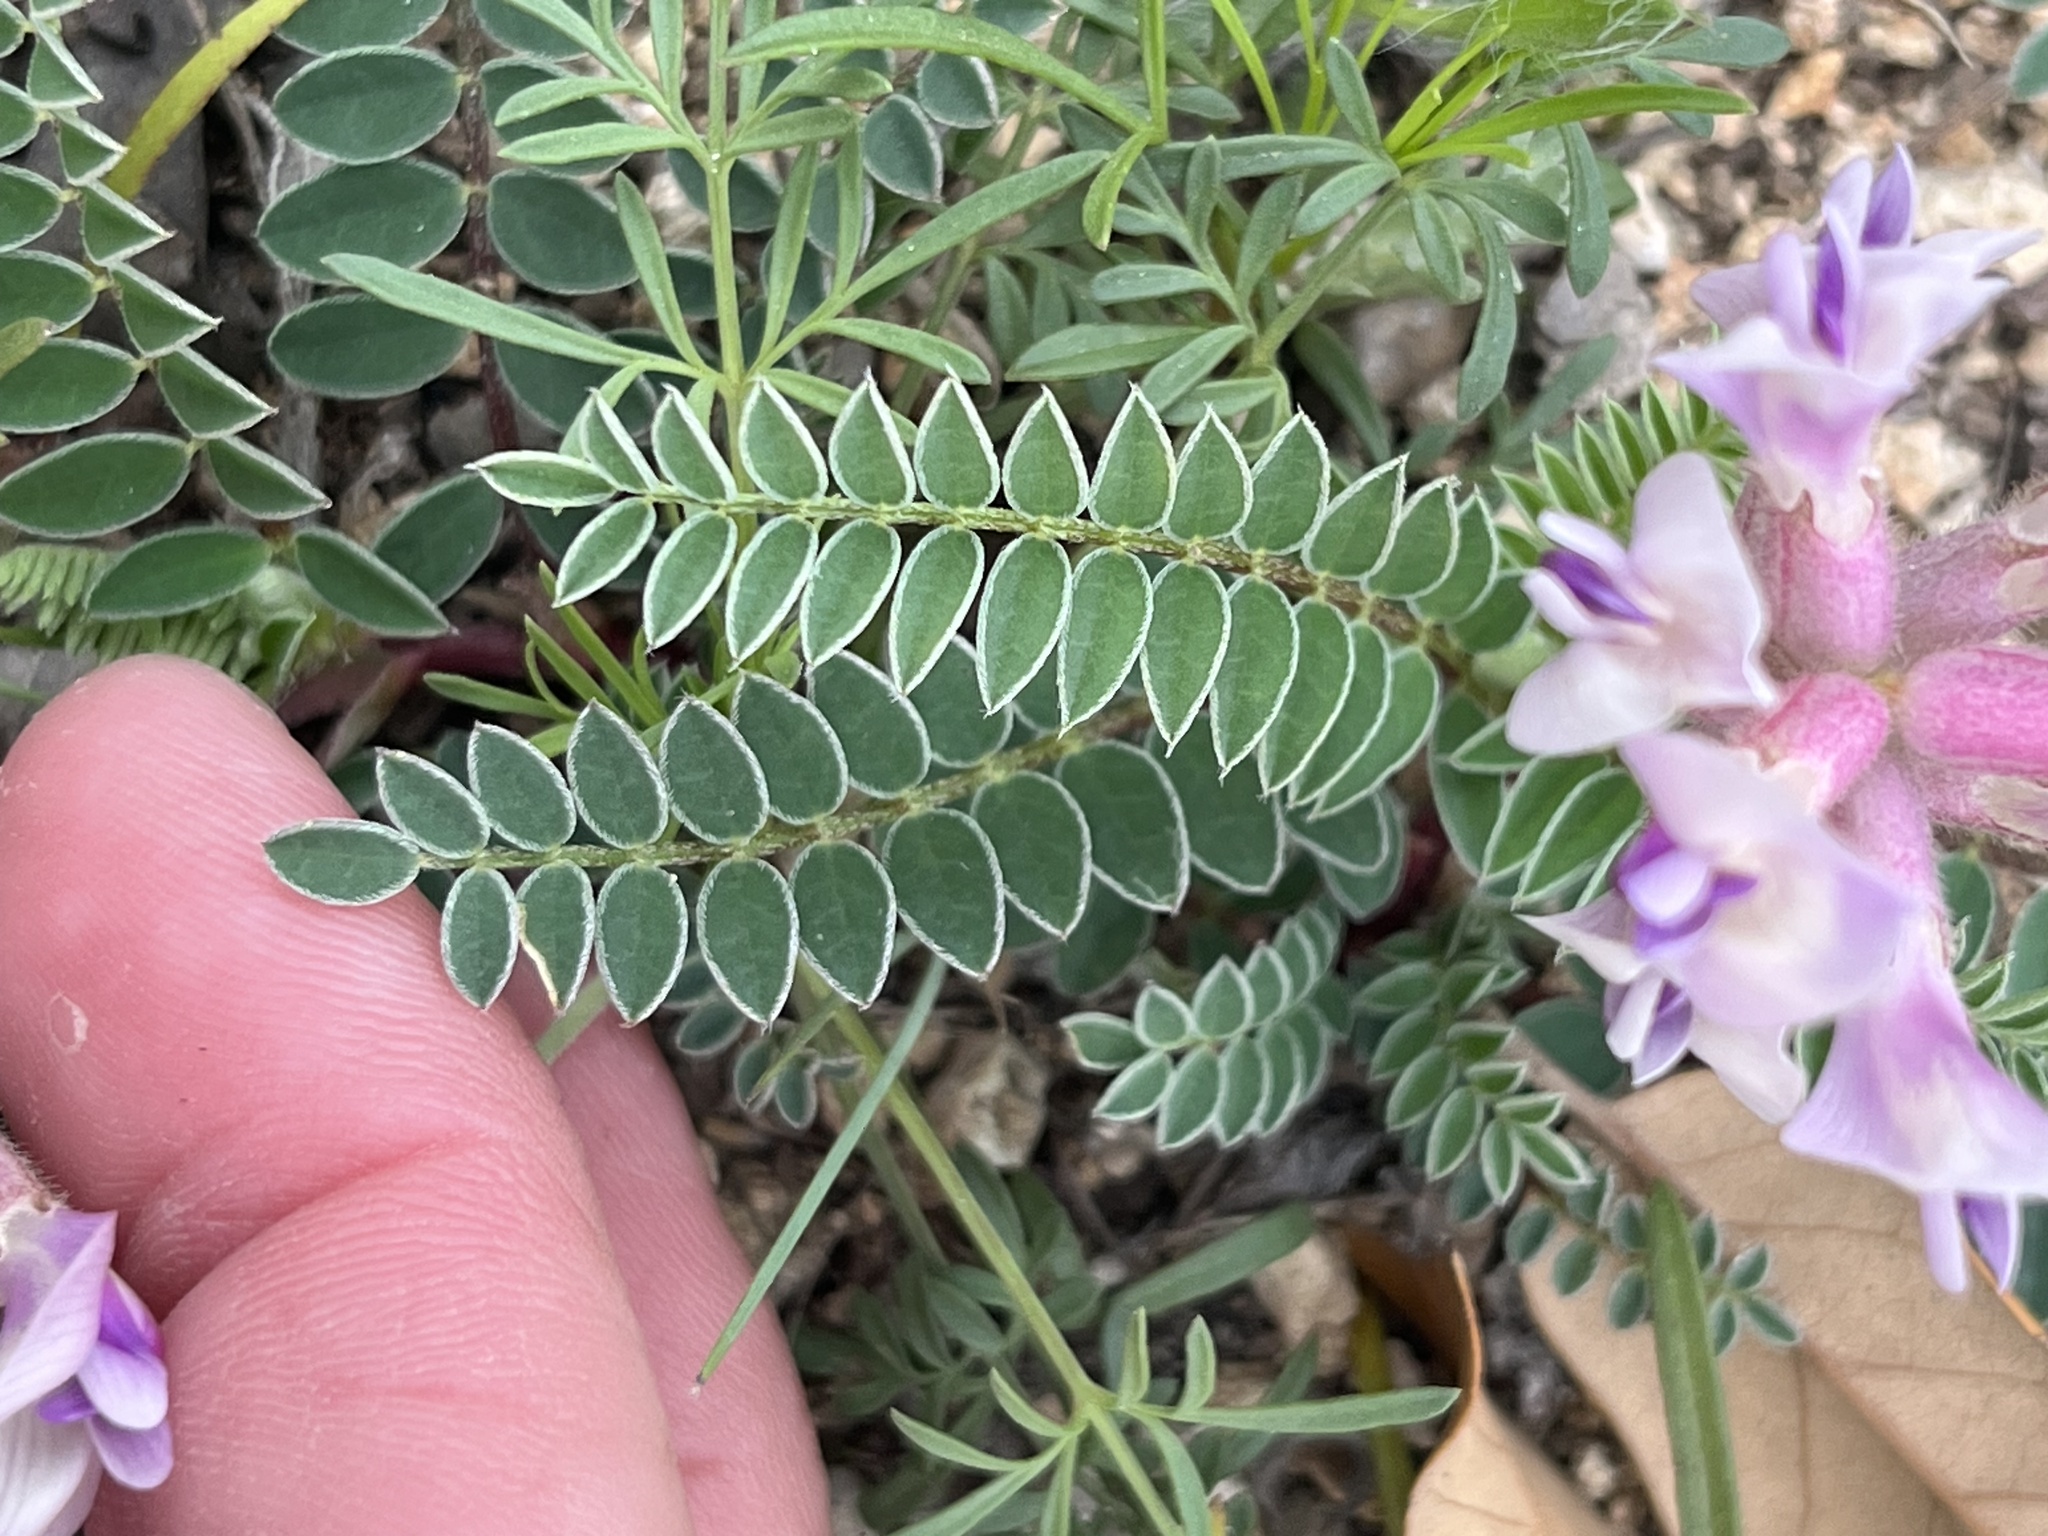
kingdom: Plantae
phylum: Tracheophyta
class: Magnoliopsida
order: Fabales
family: Fabaceae
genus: Astragalus
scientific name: Astragalus crassicarpus
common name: Ground-plum milk-vetch
